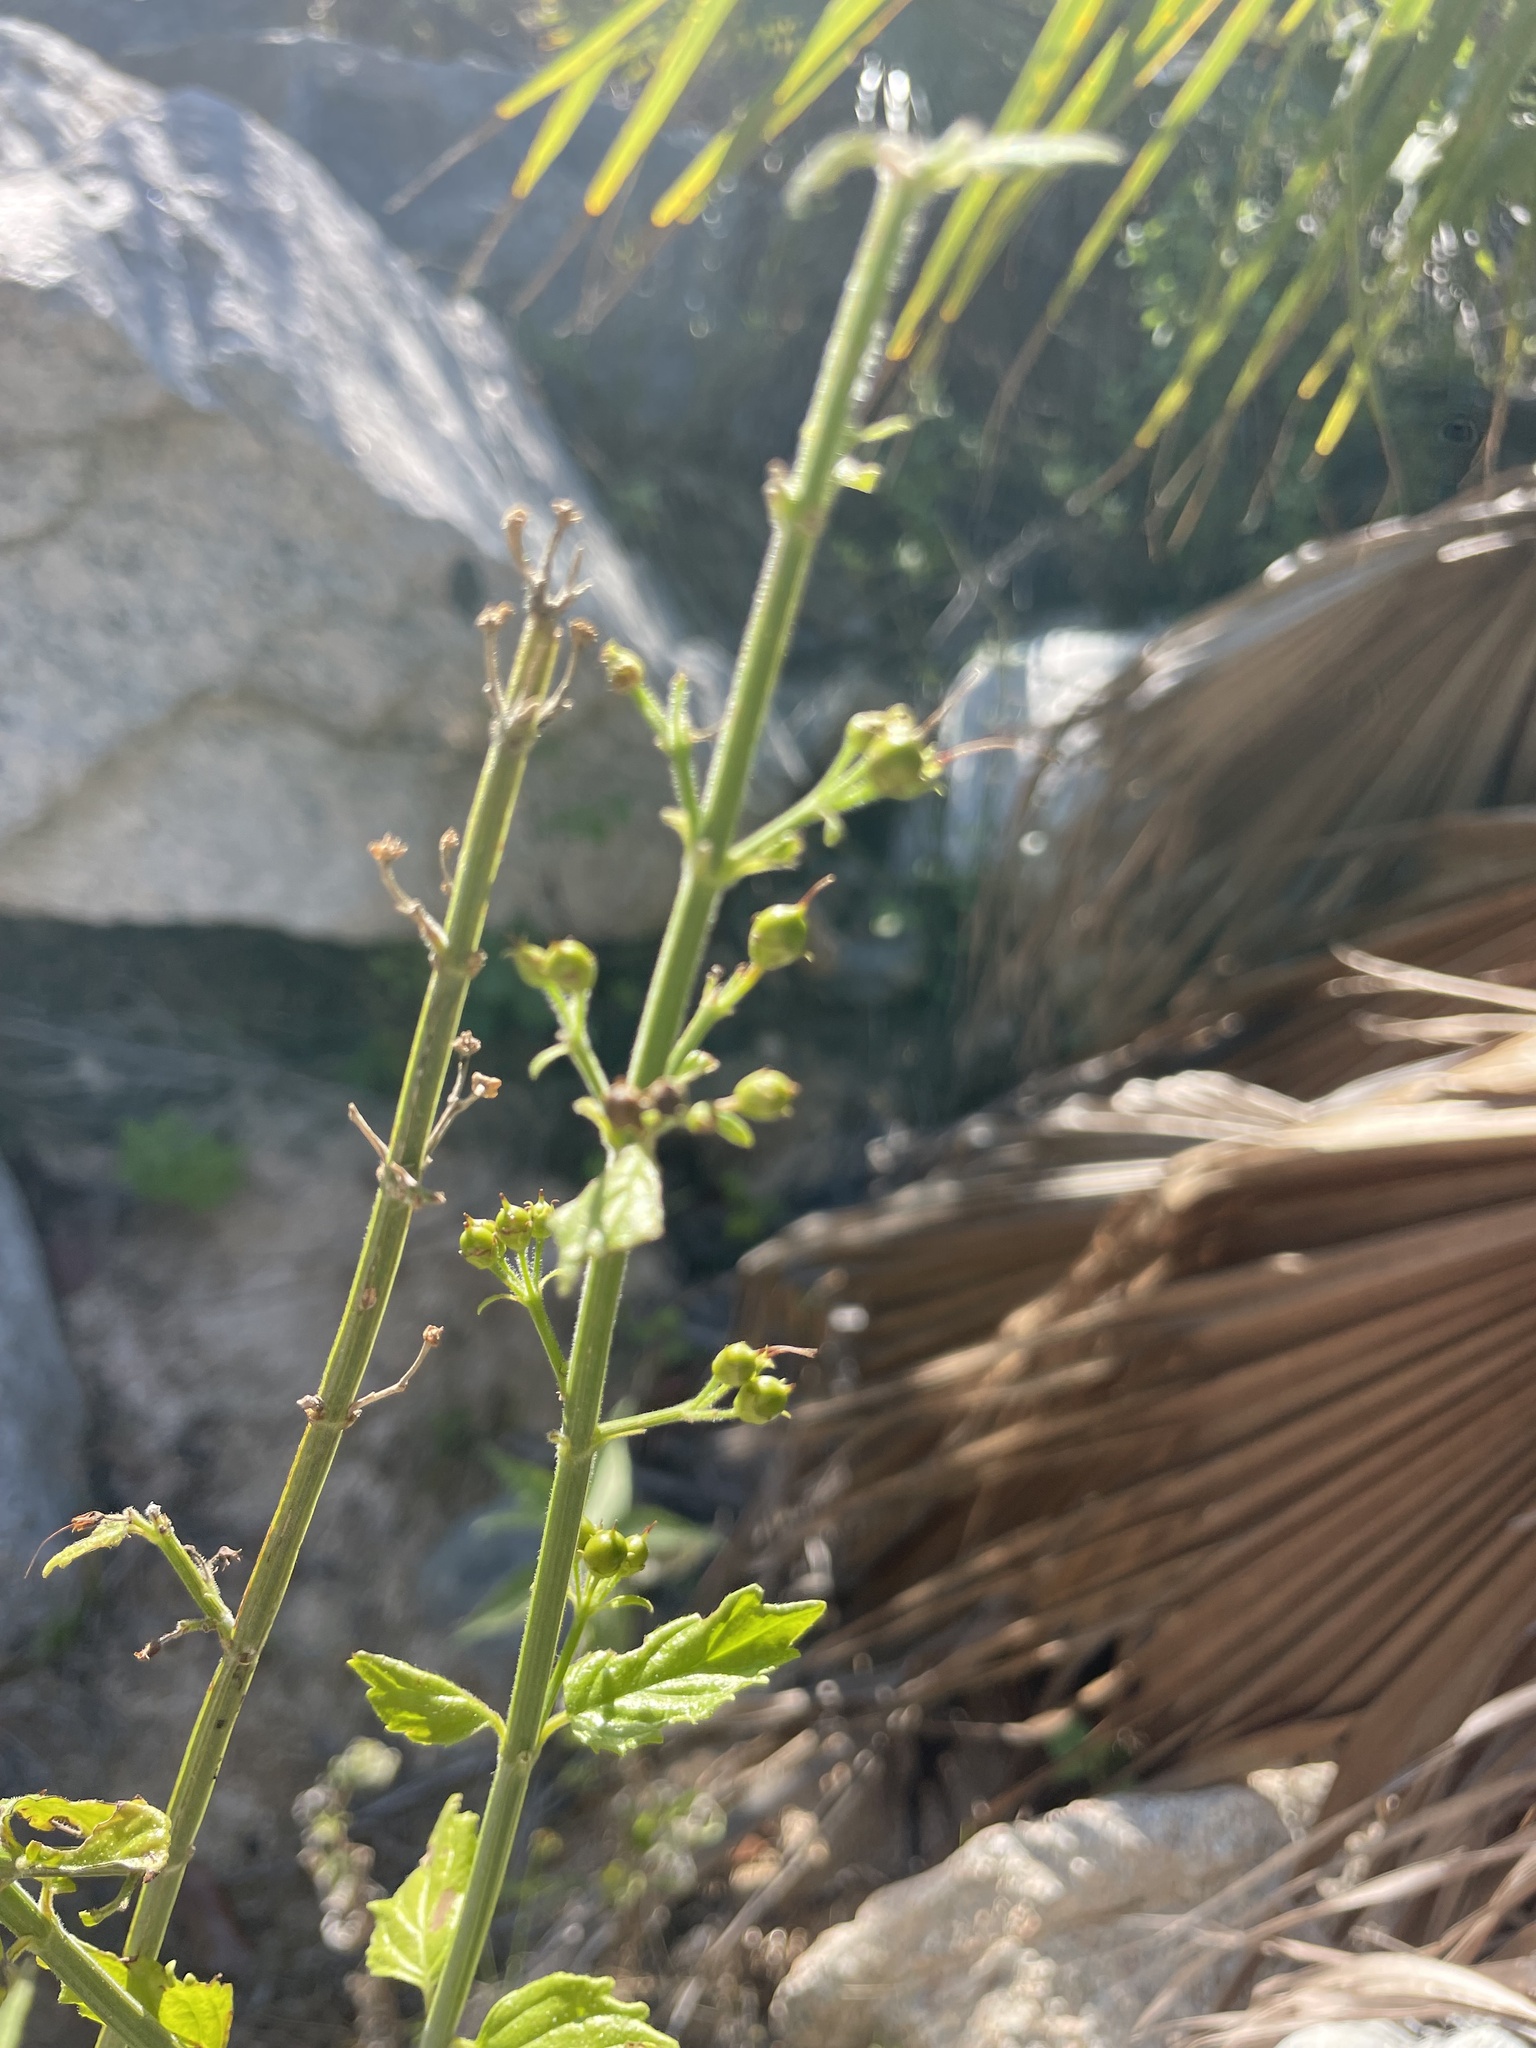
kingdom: Plantae
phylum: Tracheophyta
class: Magnoliopsida
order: Lamiales
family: Plantaginaceae
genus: Russelia
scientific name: Russelia retrorsa
